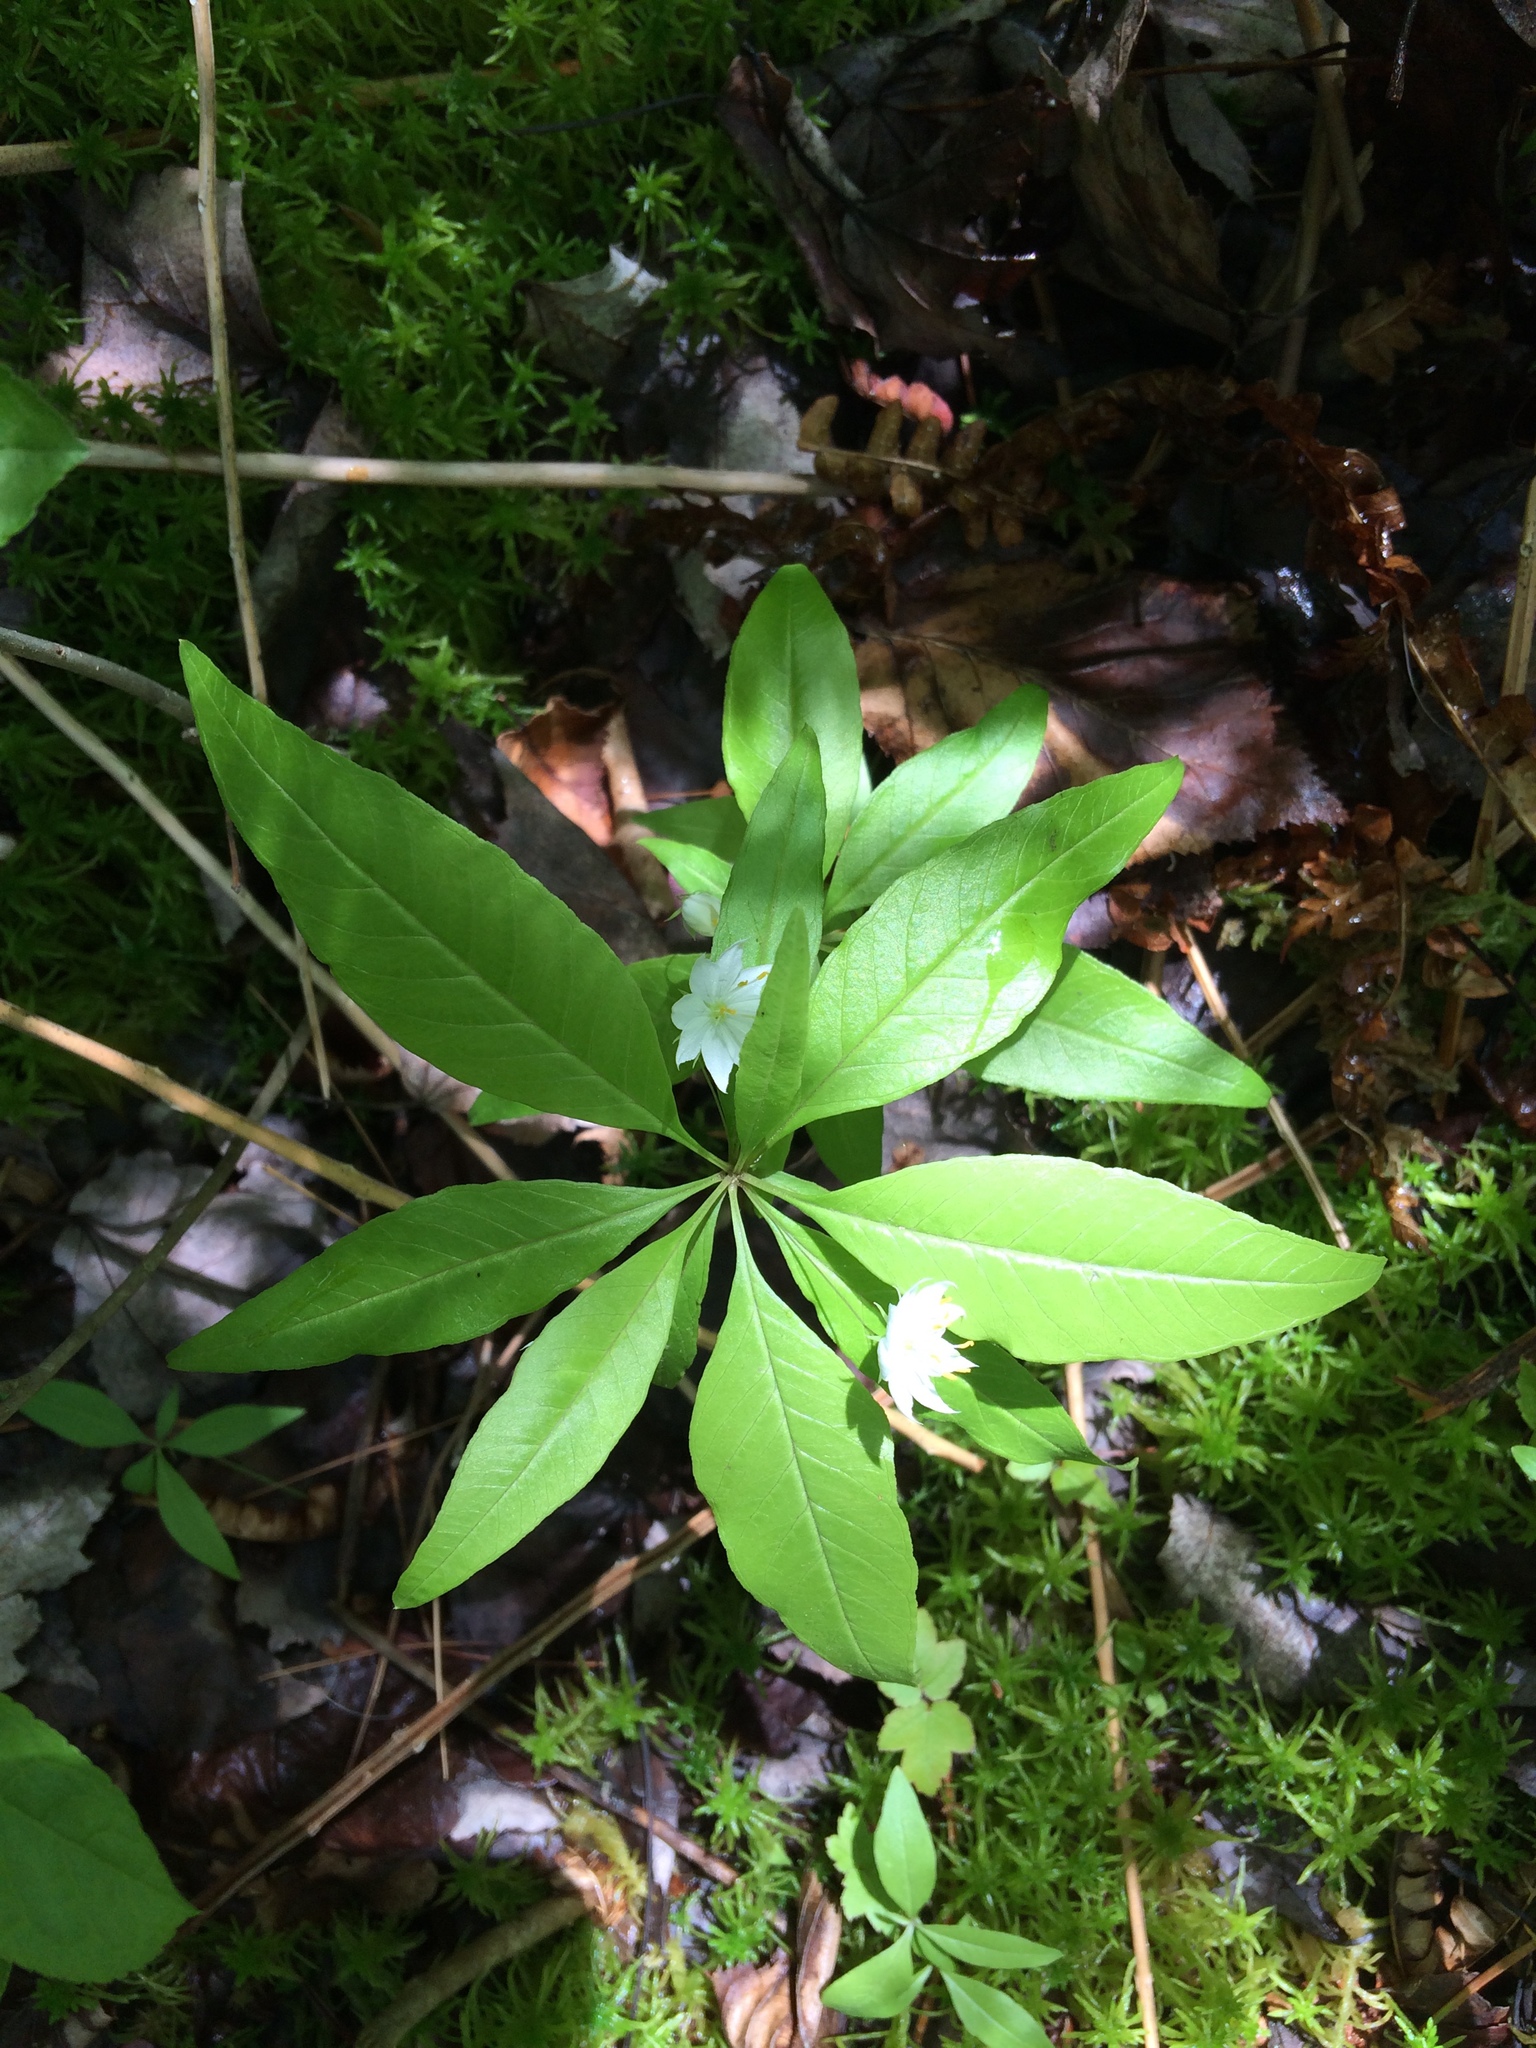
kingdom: Plantae
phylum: Tracheophyta
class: Magnoliopsida
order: Ericales
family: Primulaceae
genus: Lysimachia
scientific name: Lysimachia borealis
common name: American starflower
